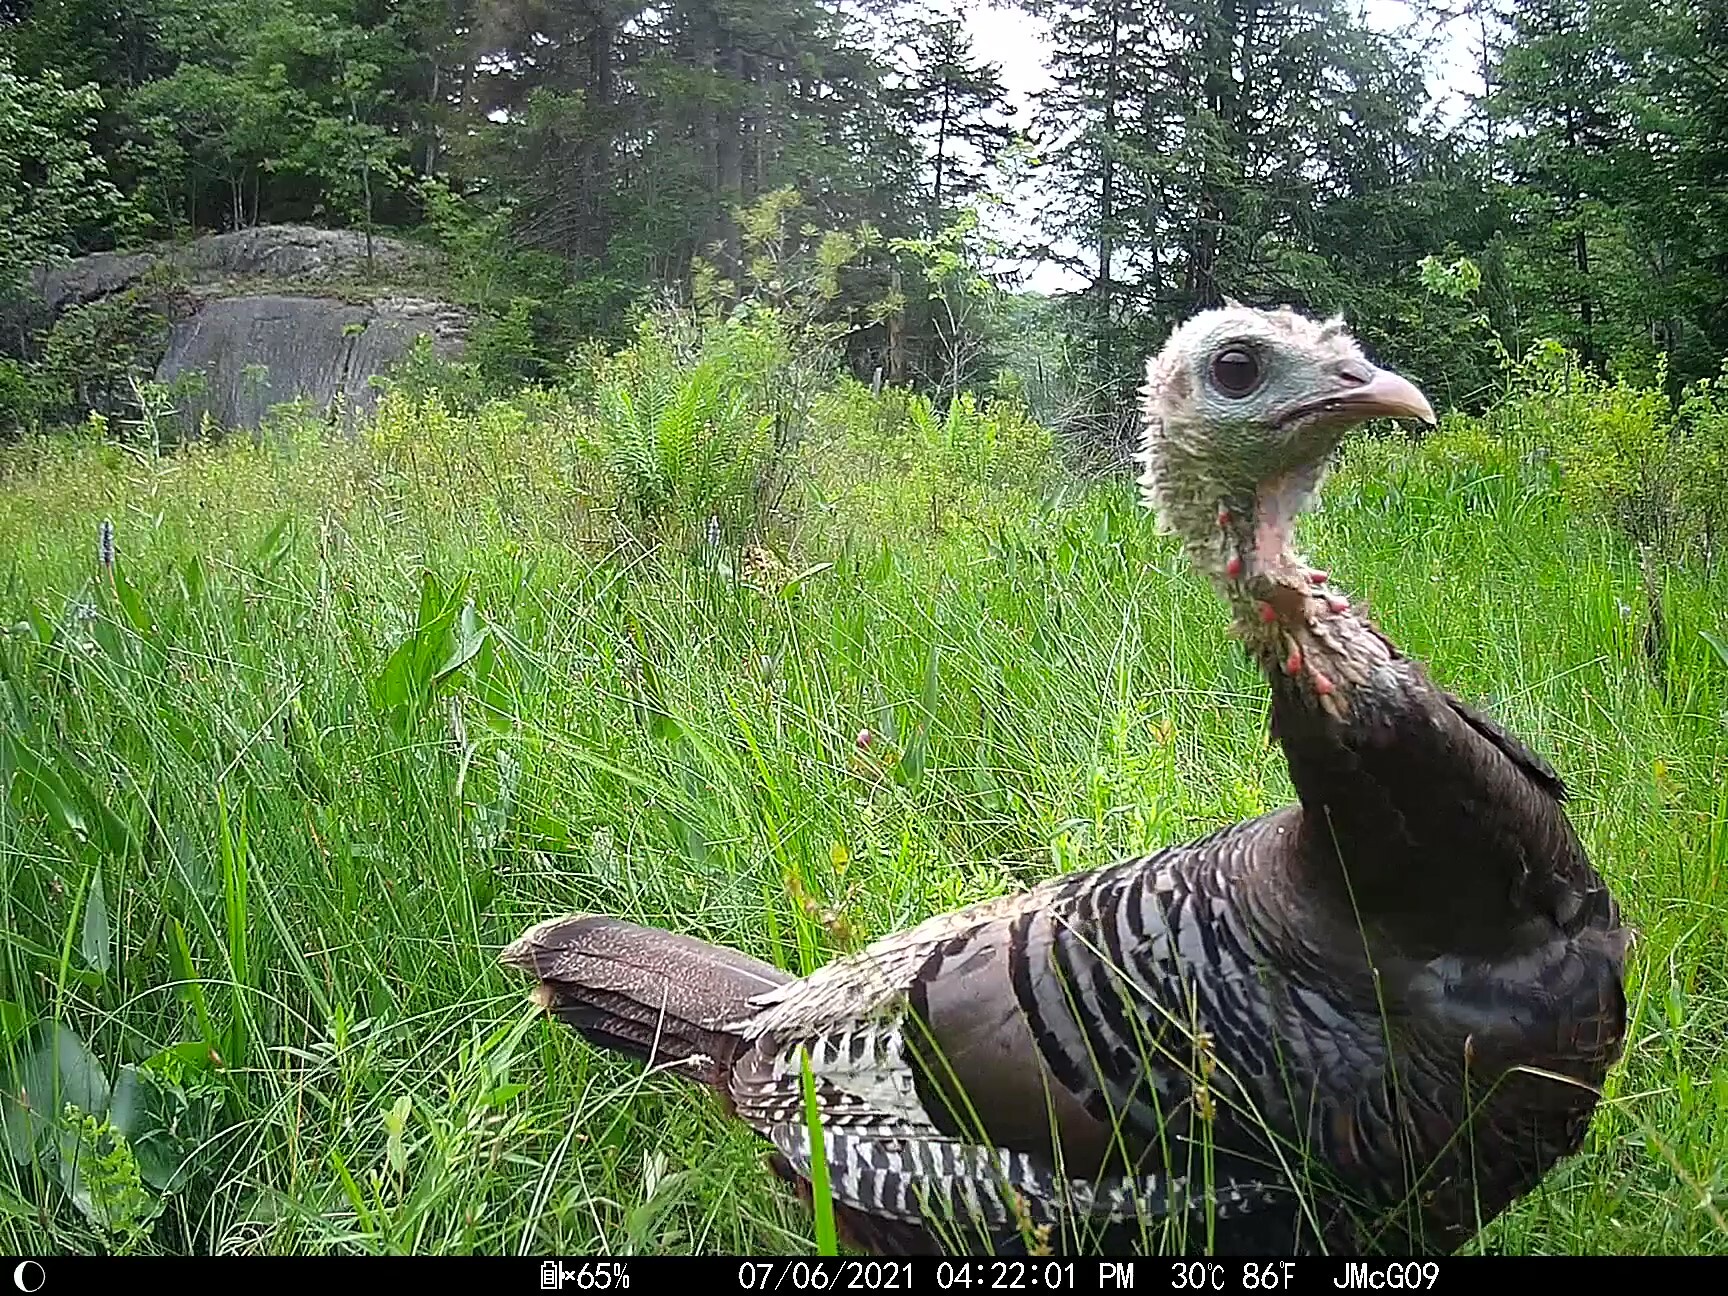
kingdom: Animalia
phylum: Chordata
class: Aves
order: Galliformes
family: Phasianidae
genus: Meleagris
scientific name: Meleagris gallopavo
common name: Wild turkey
